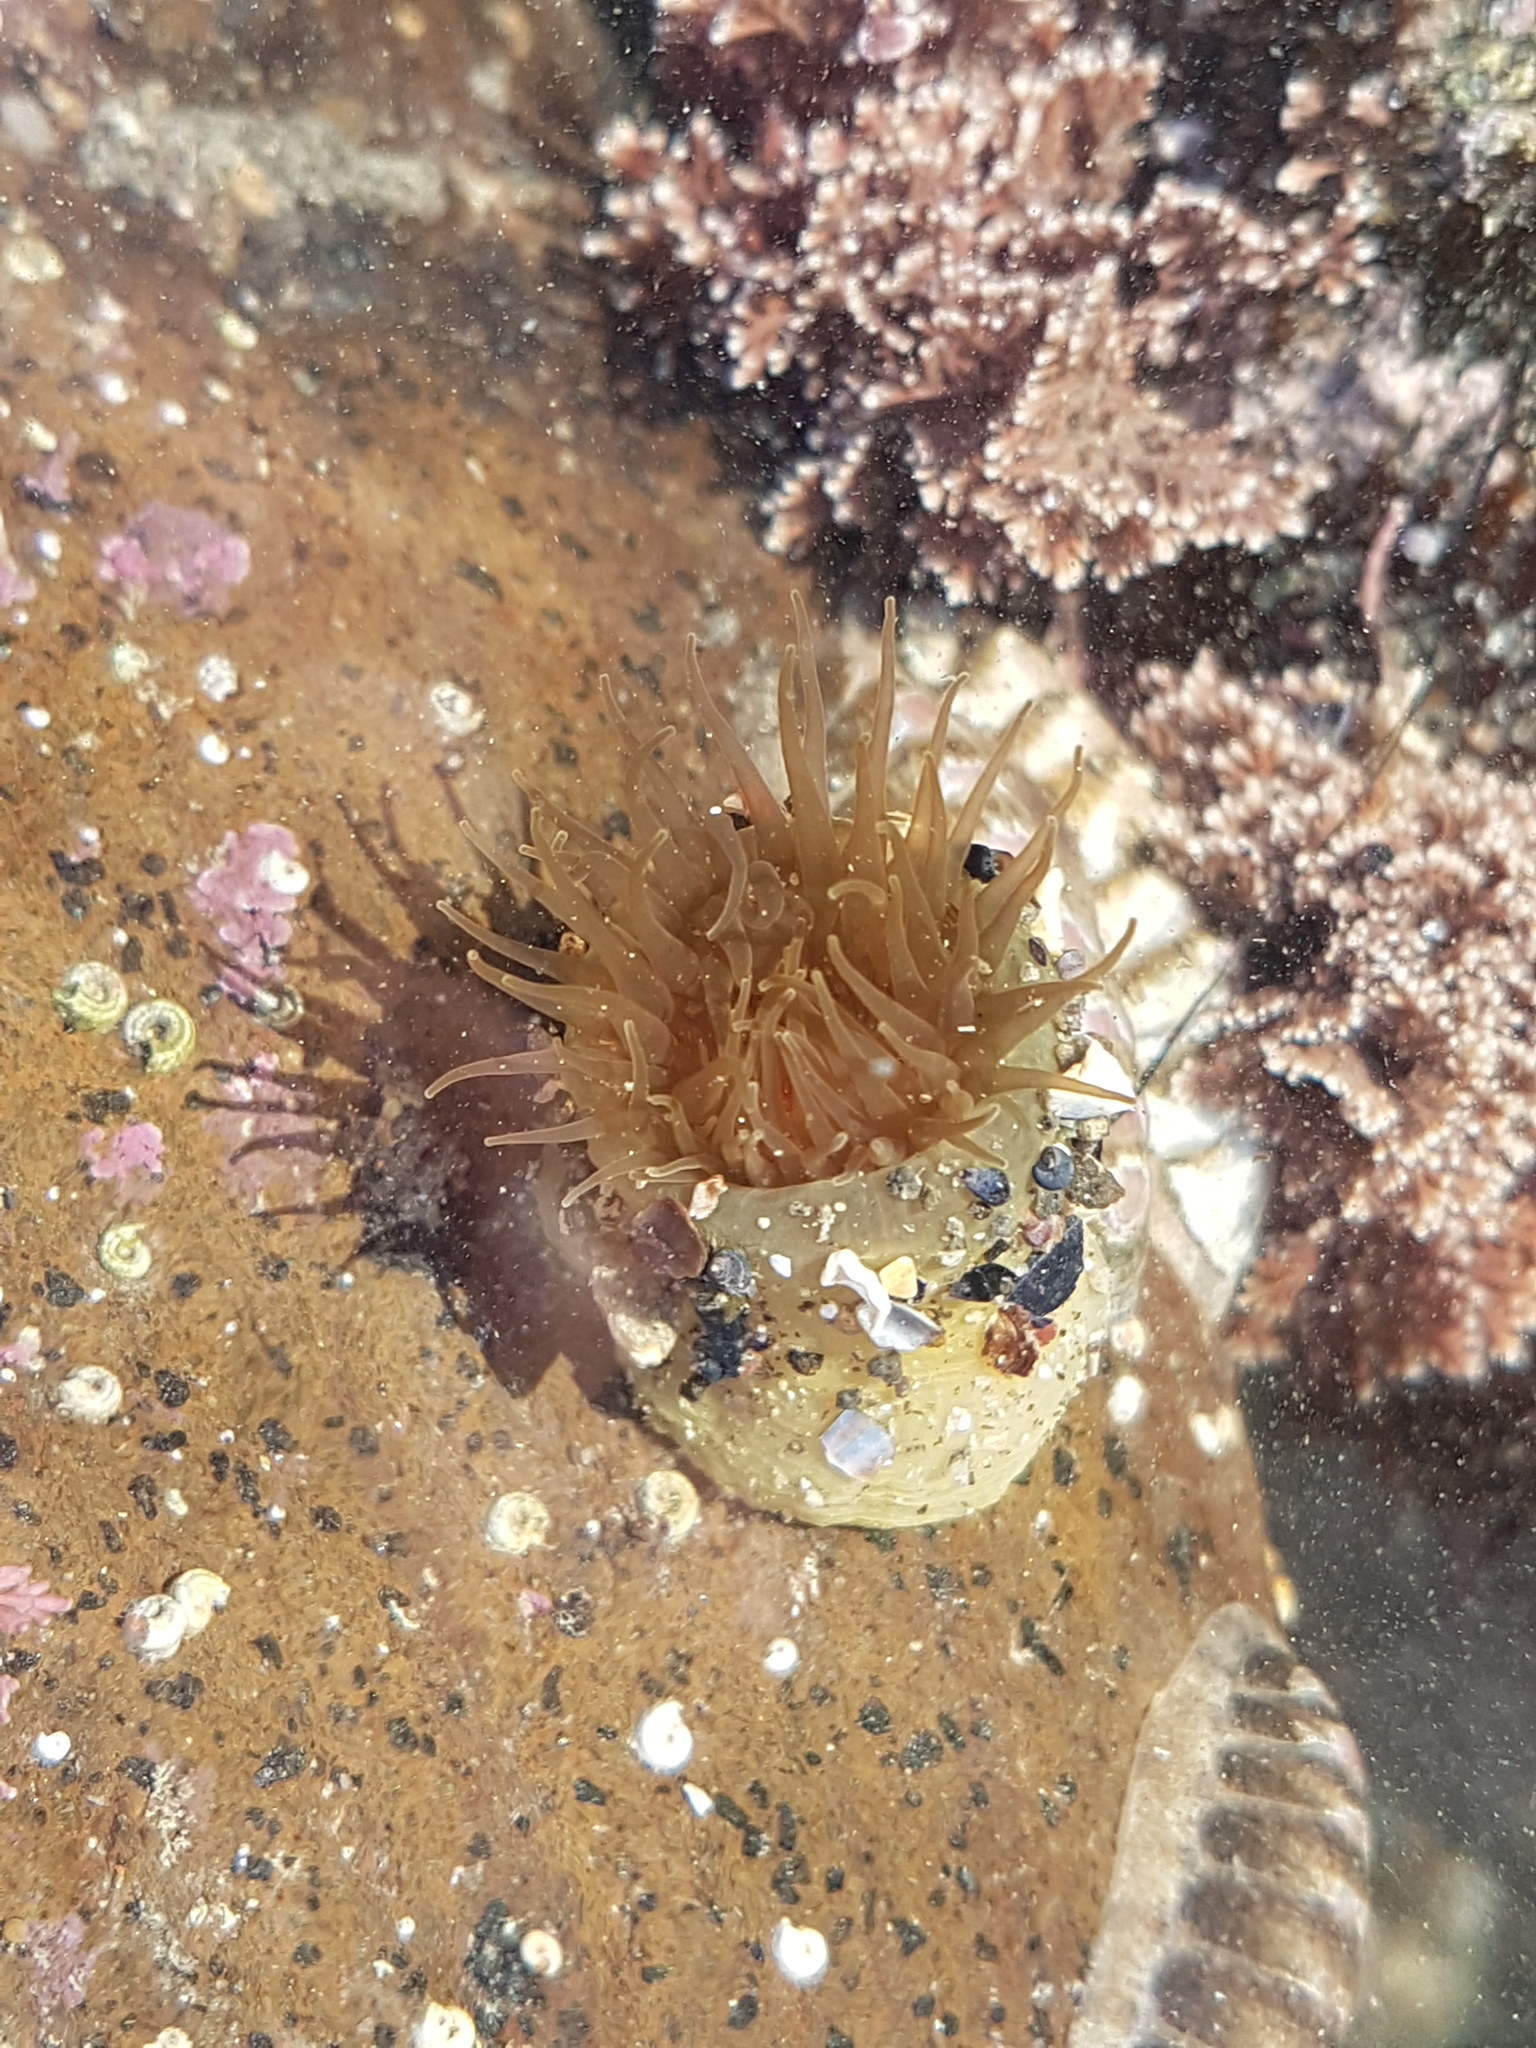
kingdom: Animalia
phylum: Cnidaria
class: Anthozoa
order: Actiniaria
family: Actiniidae
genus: Isactinia
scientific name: Isactinia olivacea
